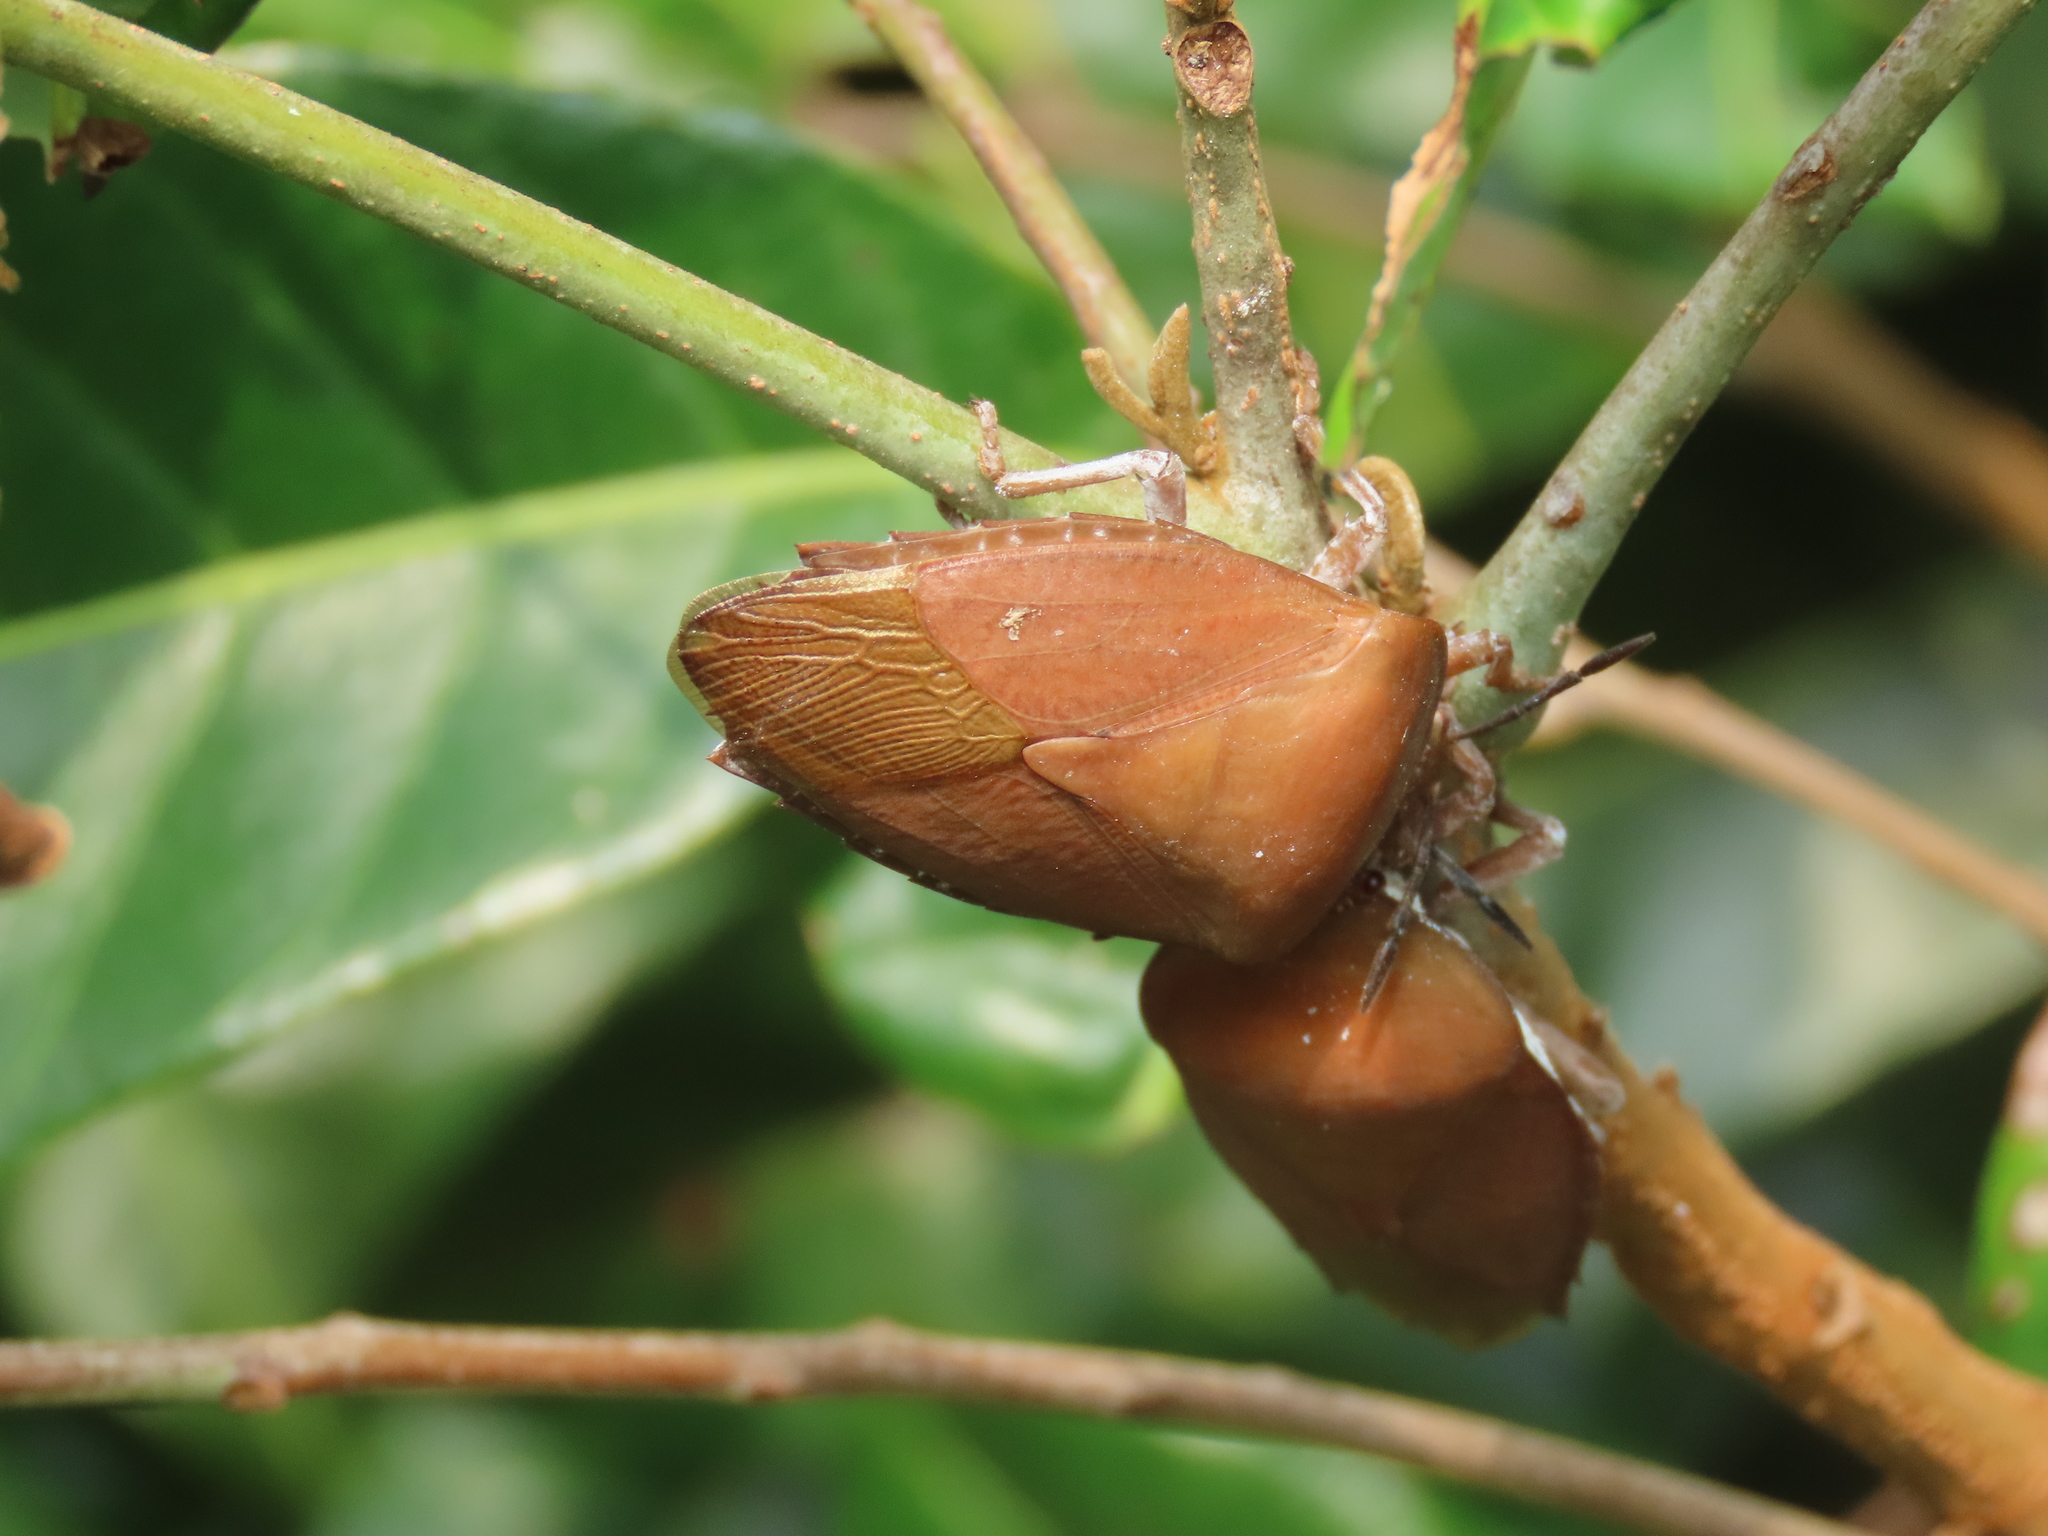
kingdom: Animalia
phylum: Arthropoda
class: Insecta
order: Hemiptera
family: Tessaratomidae
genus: Tessaratoma
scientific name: Tessaratoma papillosa
